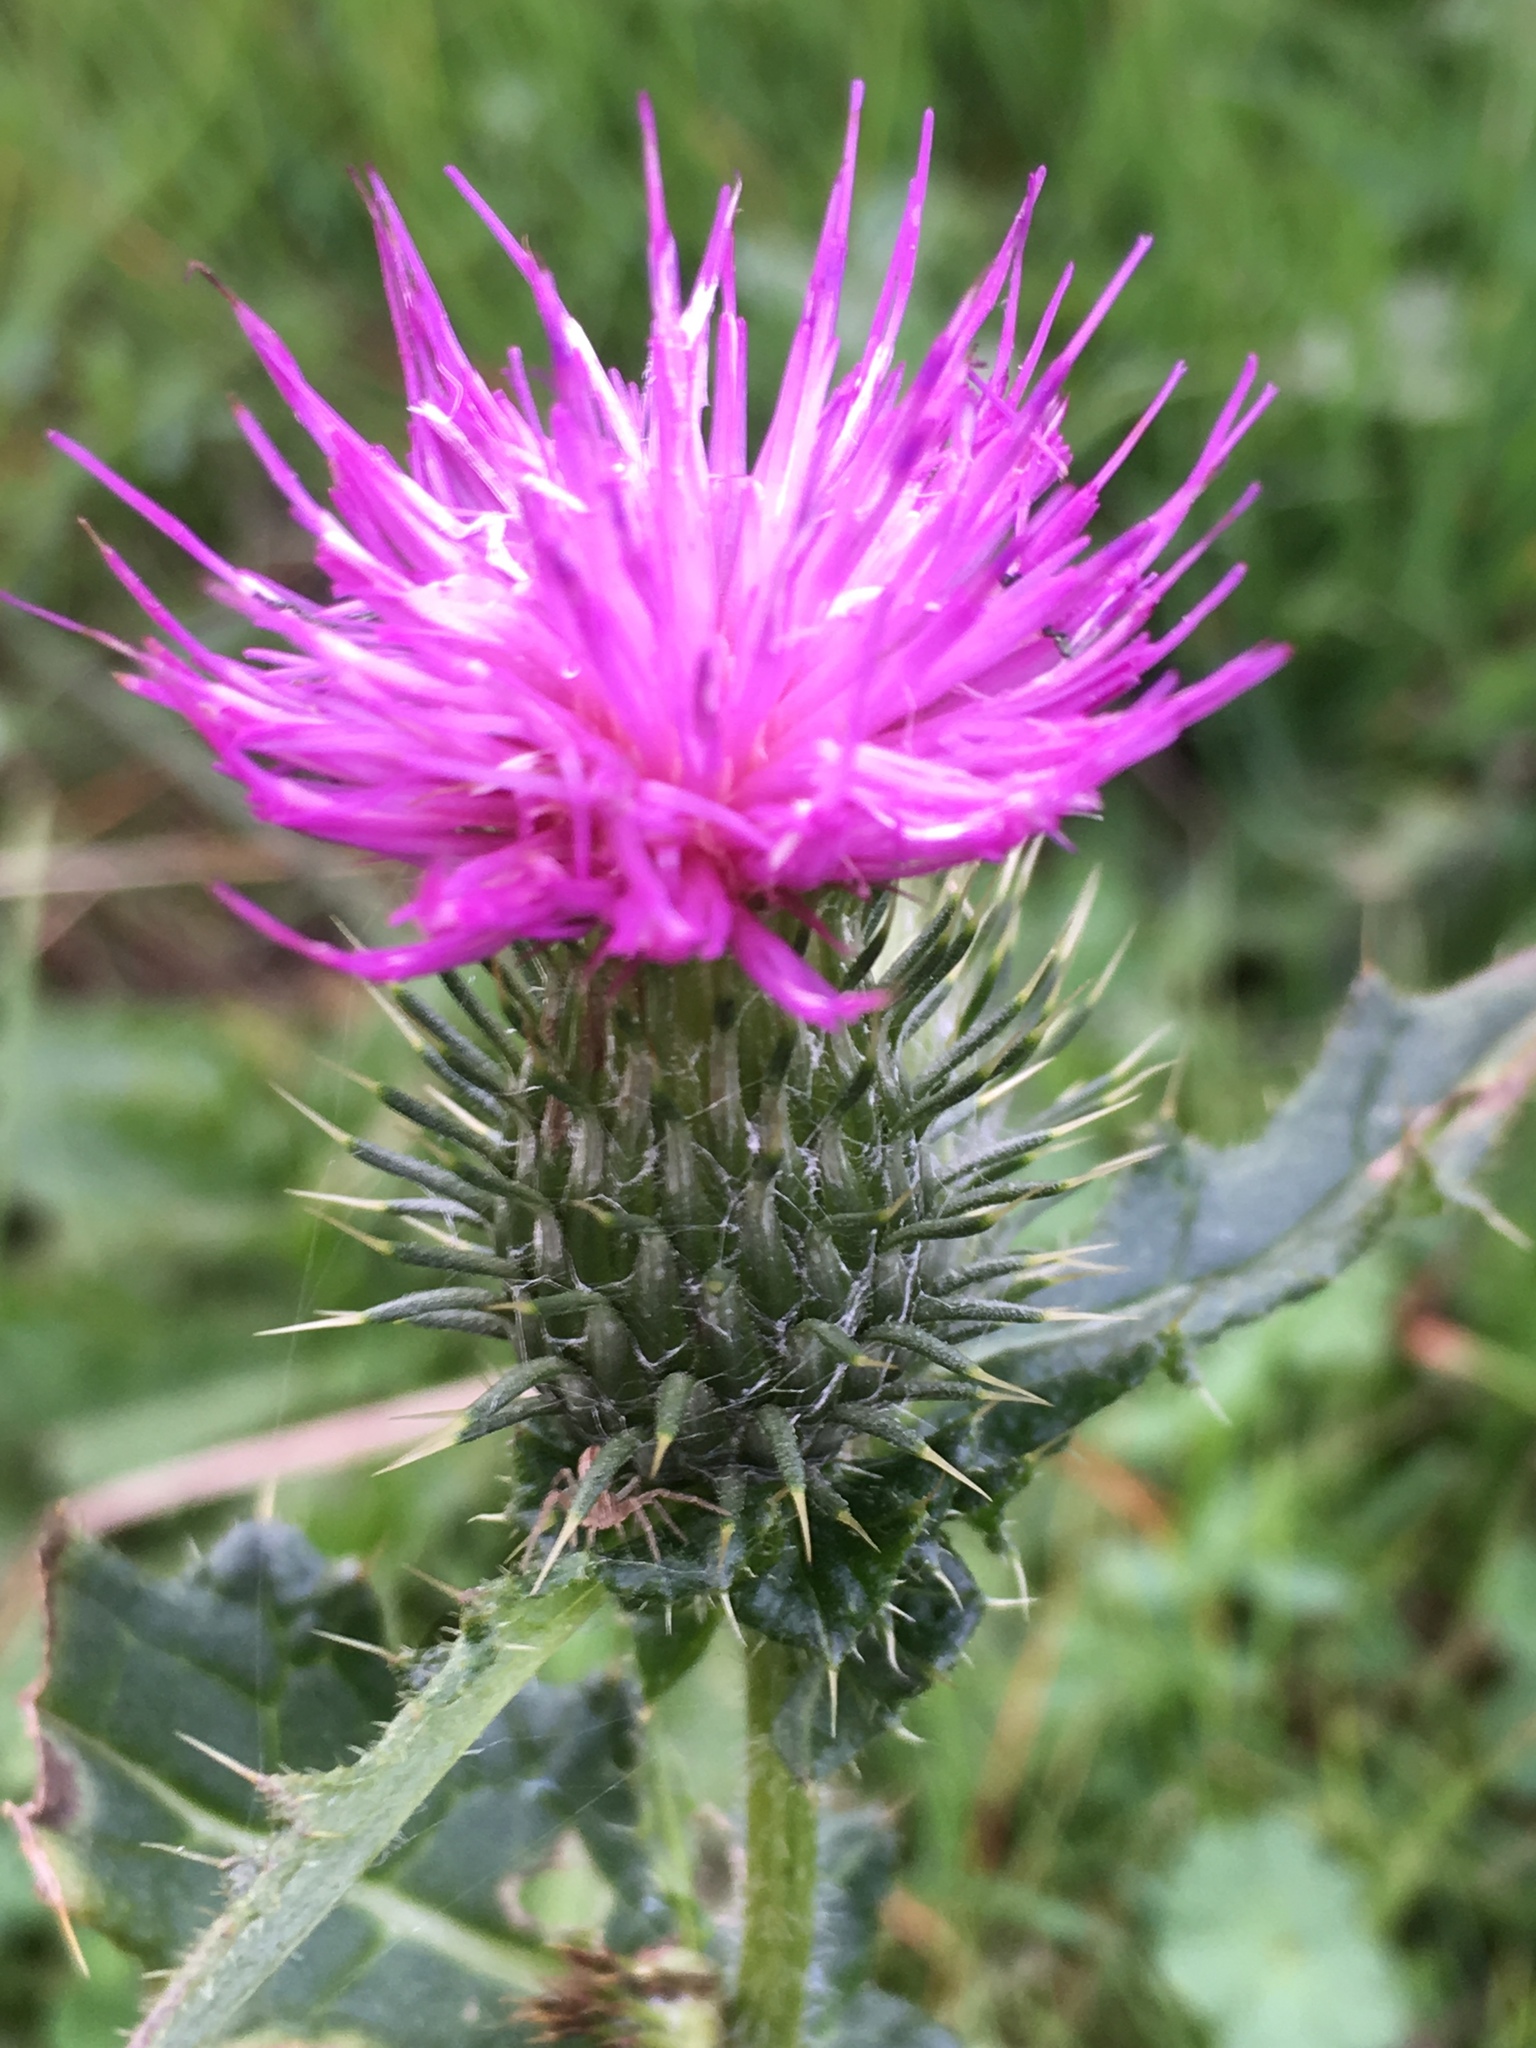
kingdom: Plantae
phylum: Tracheophyta
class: Magnoliopsida
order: Asterales
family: Asteraceae
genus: Cirsium
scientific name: Cirsium vulgare
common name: Bull thistle
